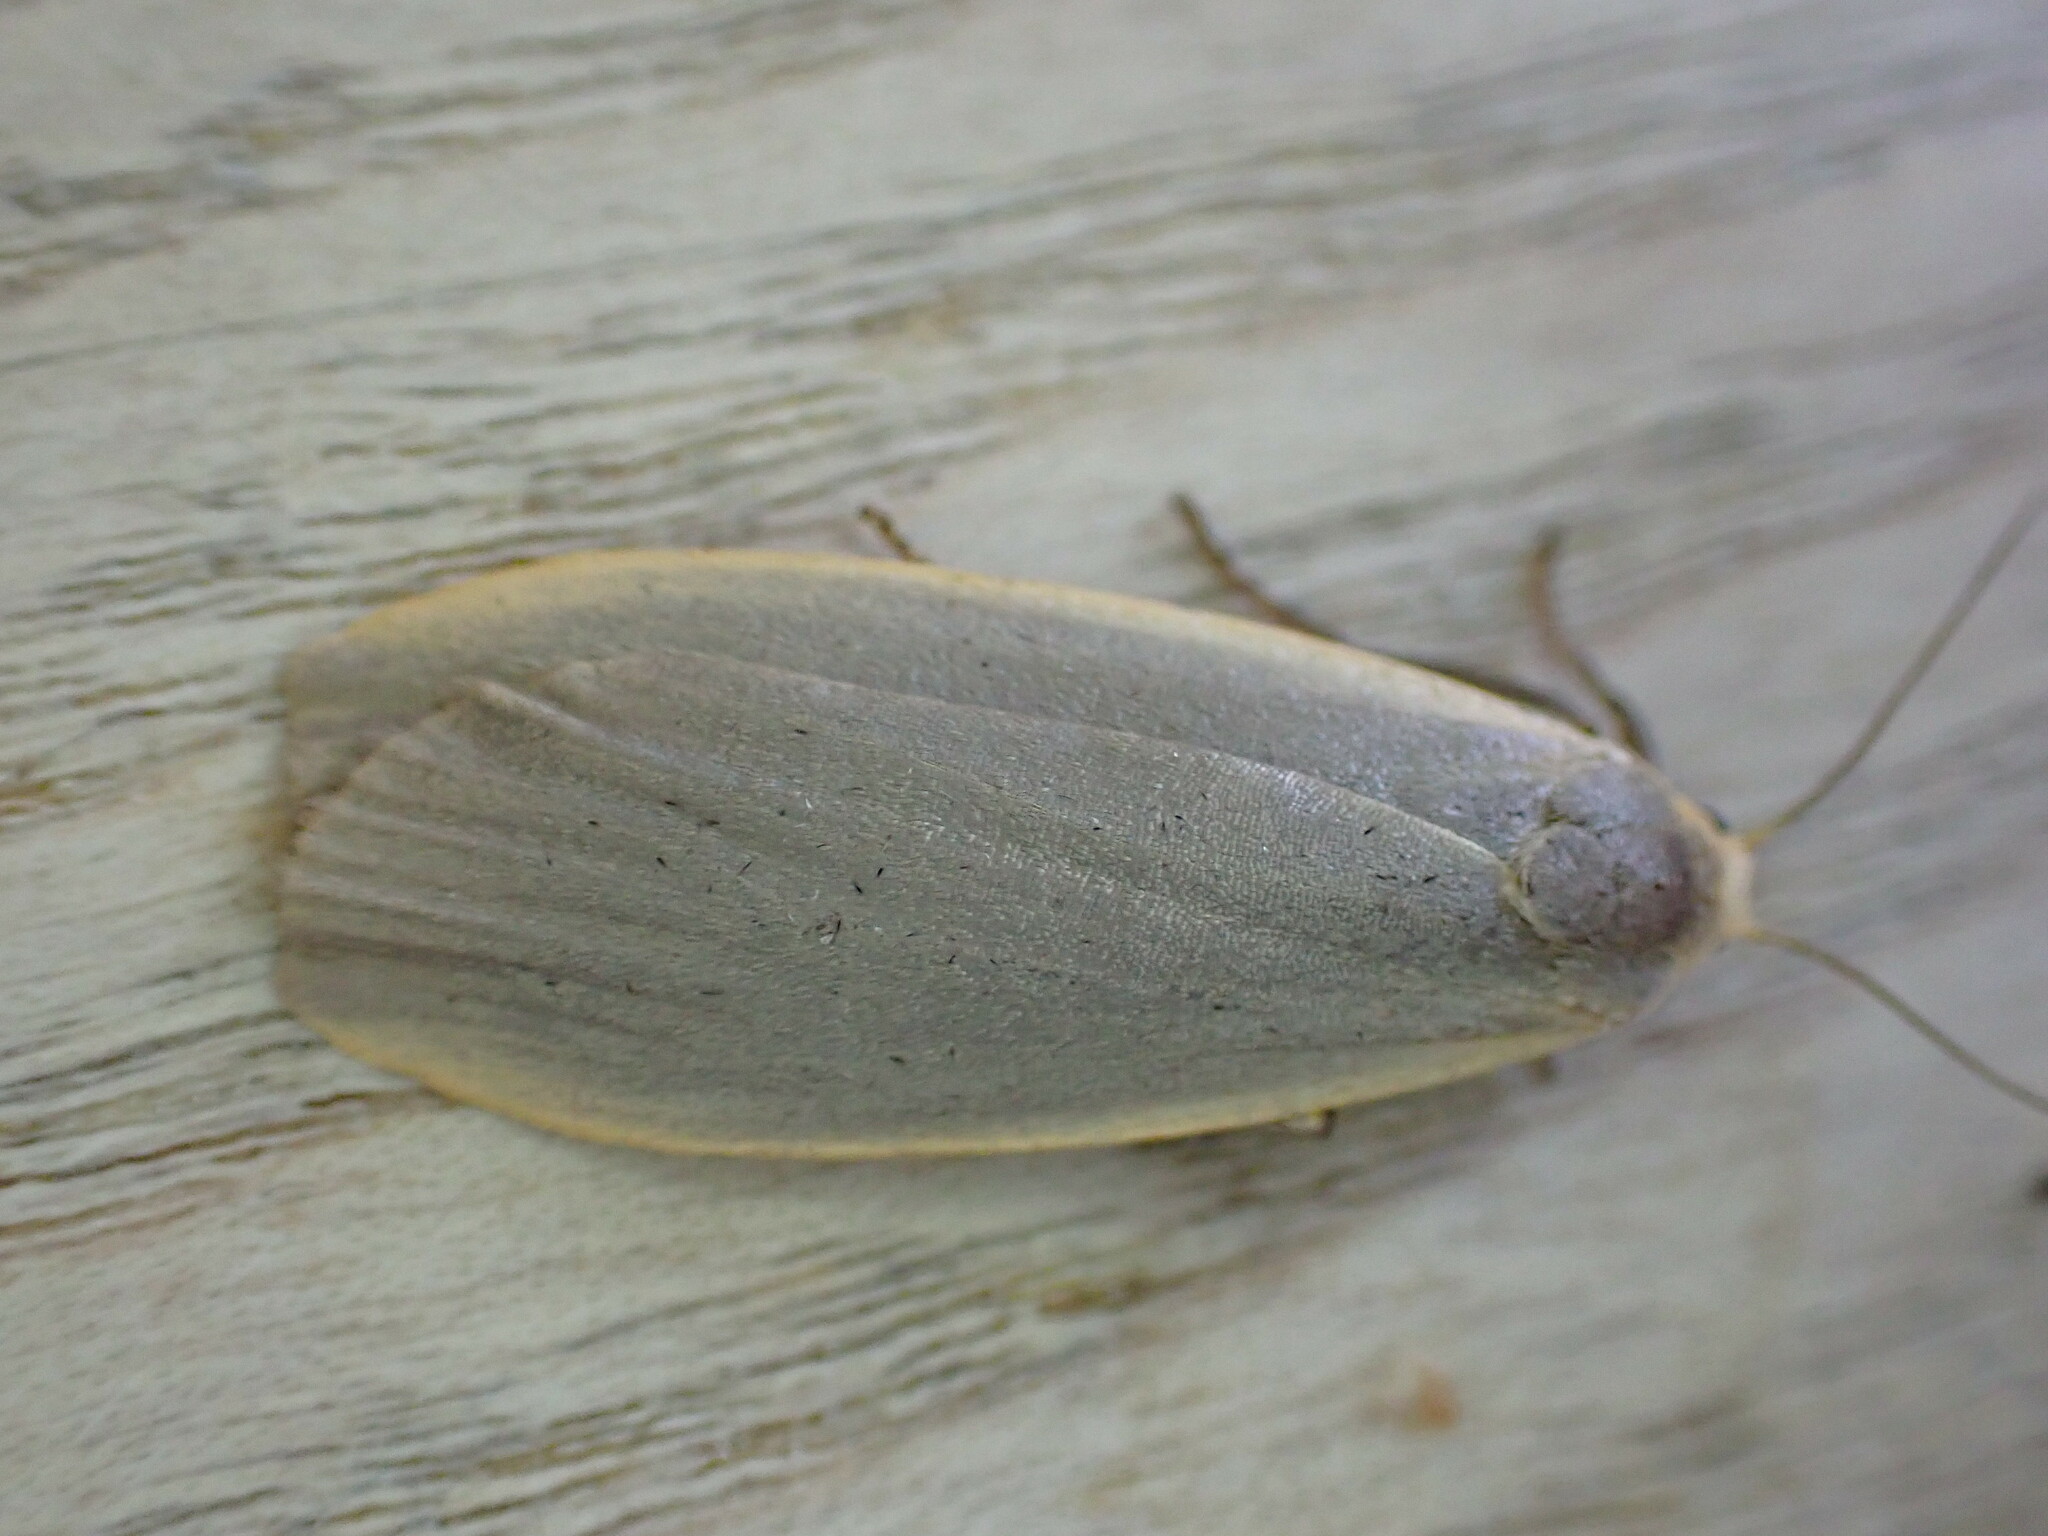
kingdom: Animalia
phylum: Arthropoda
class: Insecta
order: Lepidoptera
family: Erebidae
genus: Collita
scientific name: Collita griseola
